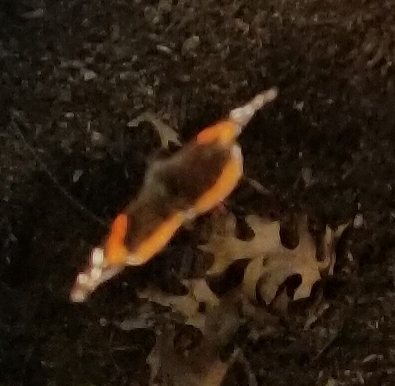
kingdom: Animalia
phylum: Arthropoda
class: Insecta
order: Lepidoptera
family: Nymphalidae
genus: Vanessa
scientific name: Vanessa atalanta
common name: Red admiral
